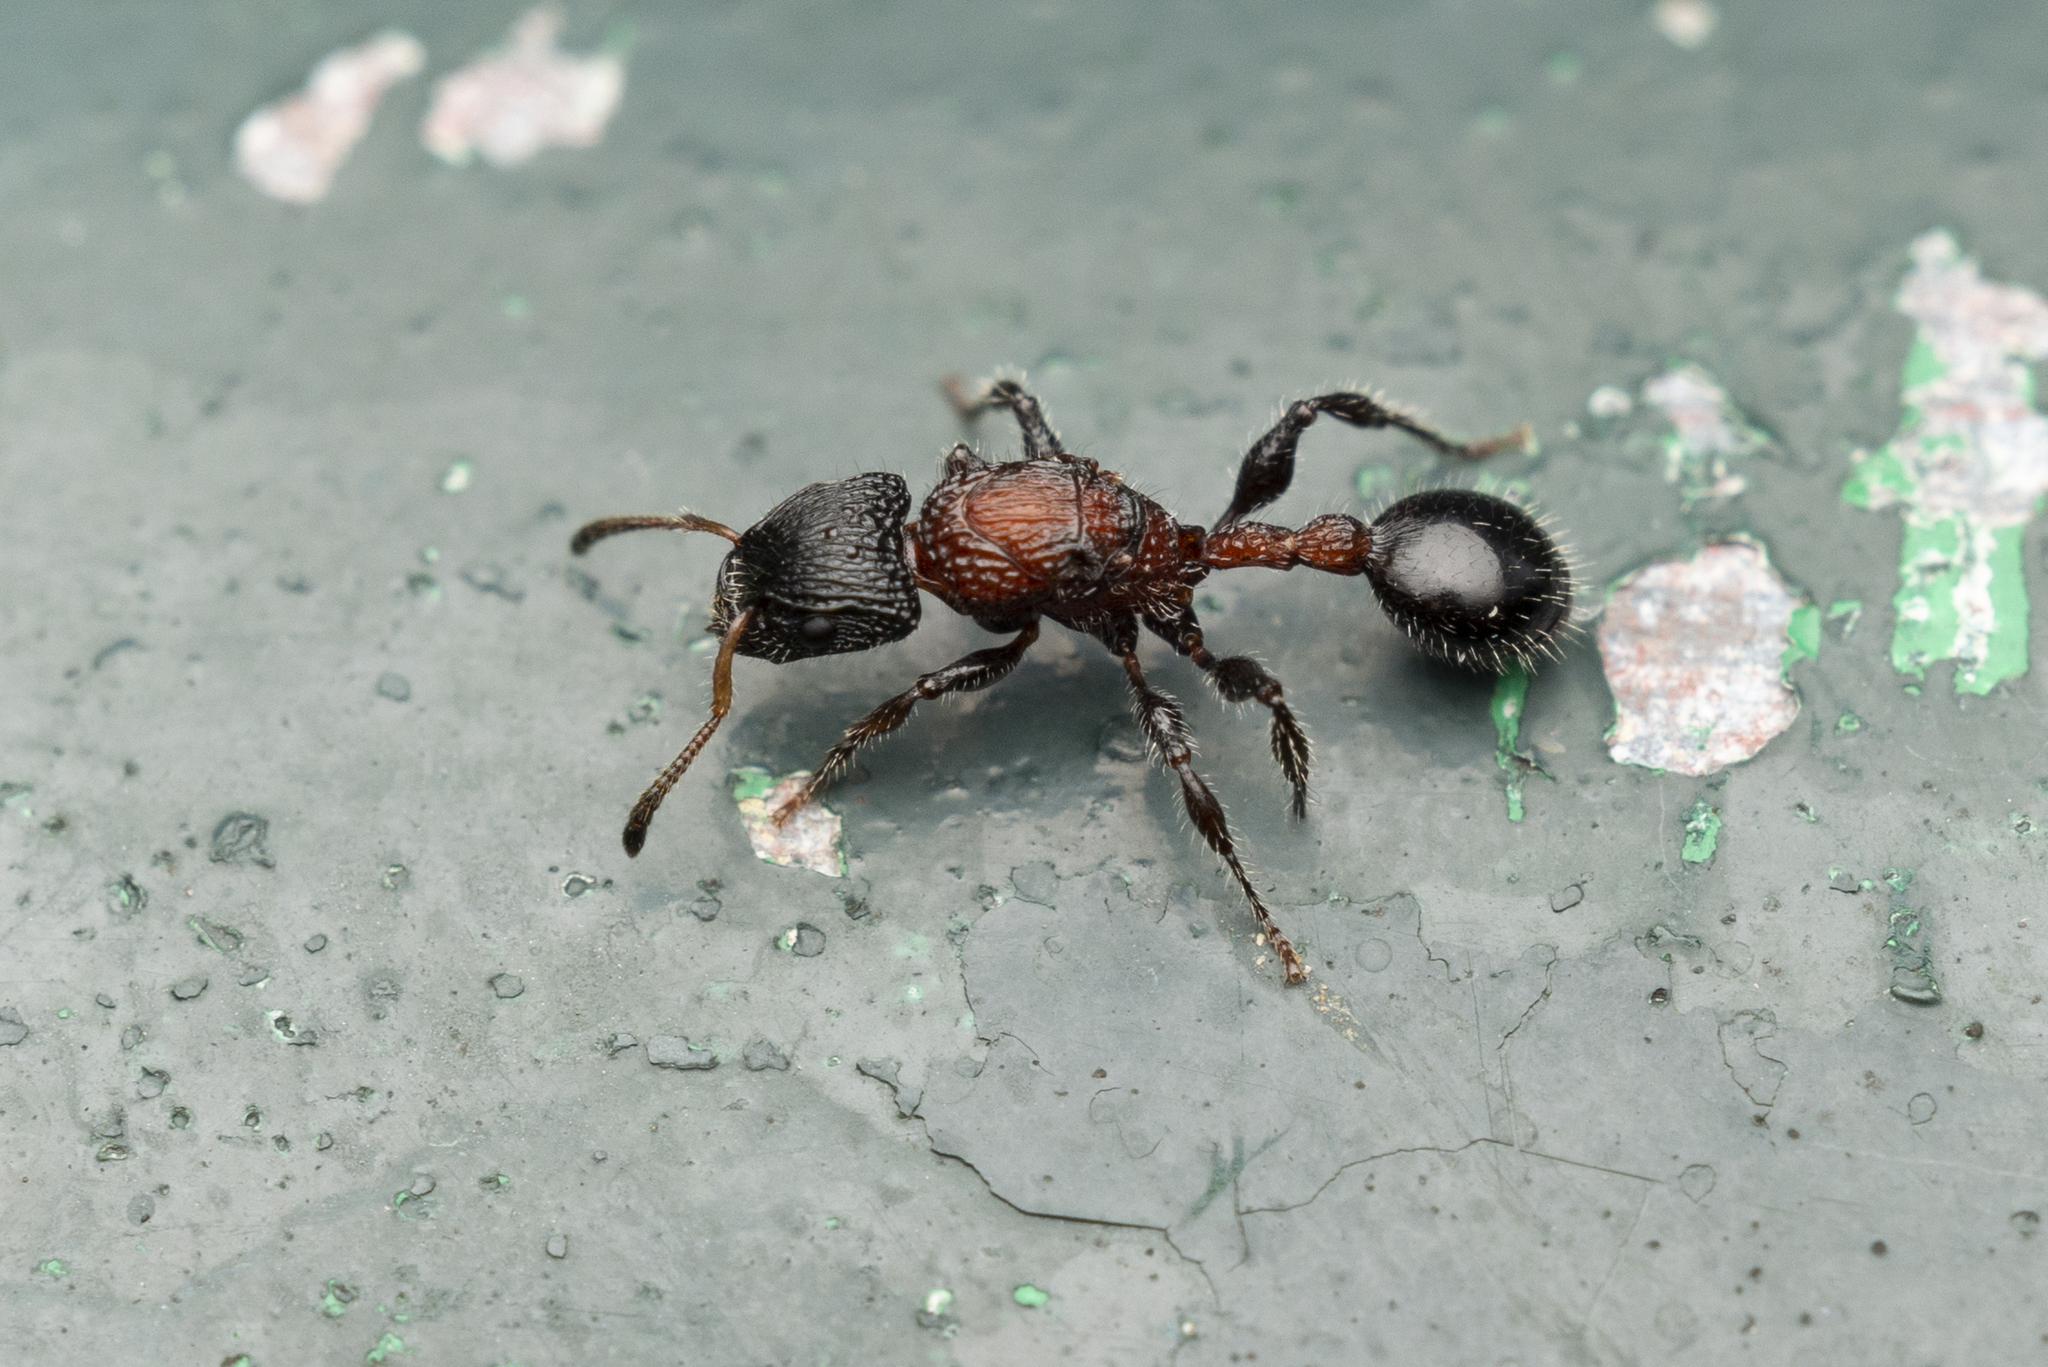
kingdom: Animalia
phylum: Arthropoda
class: Insecta
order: Hymenoptera
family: Formicidae
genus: Dilobocondyla
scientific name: Dilobocondyla fouqueti
